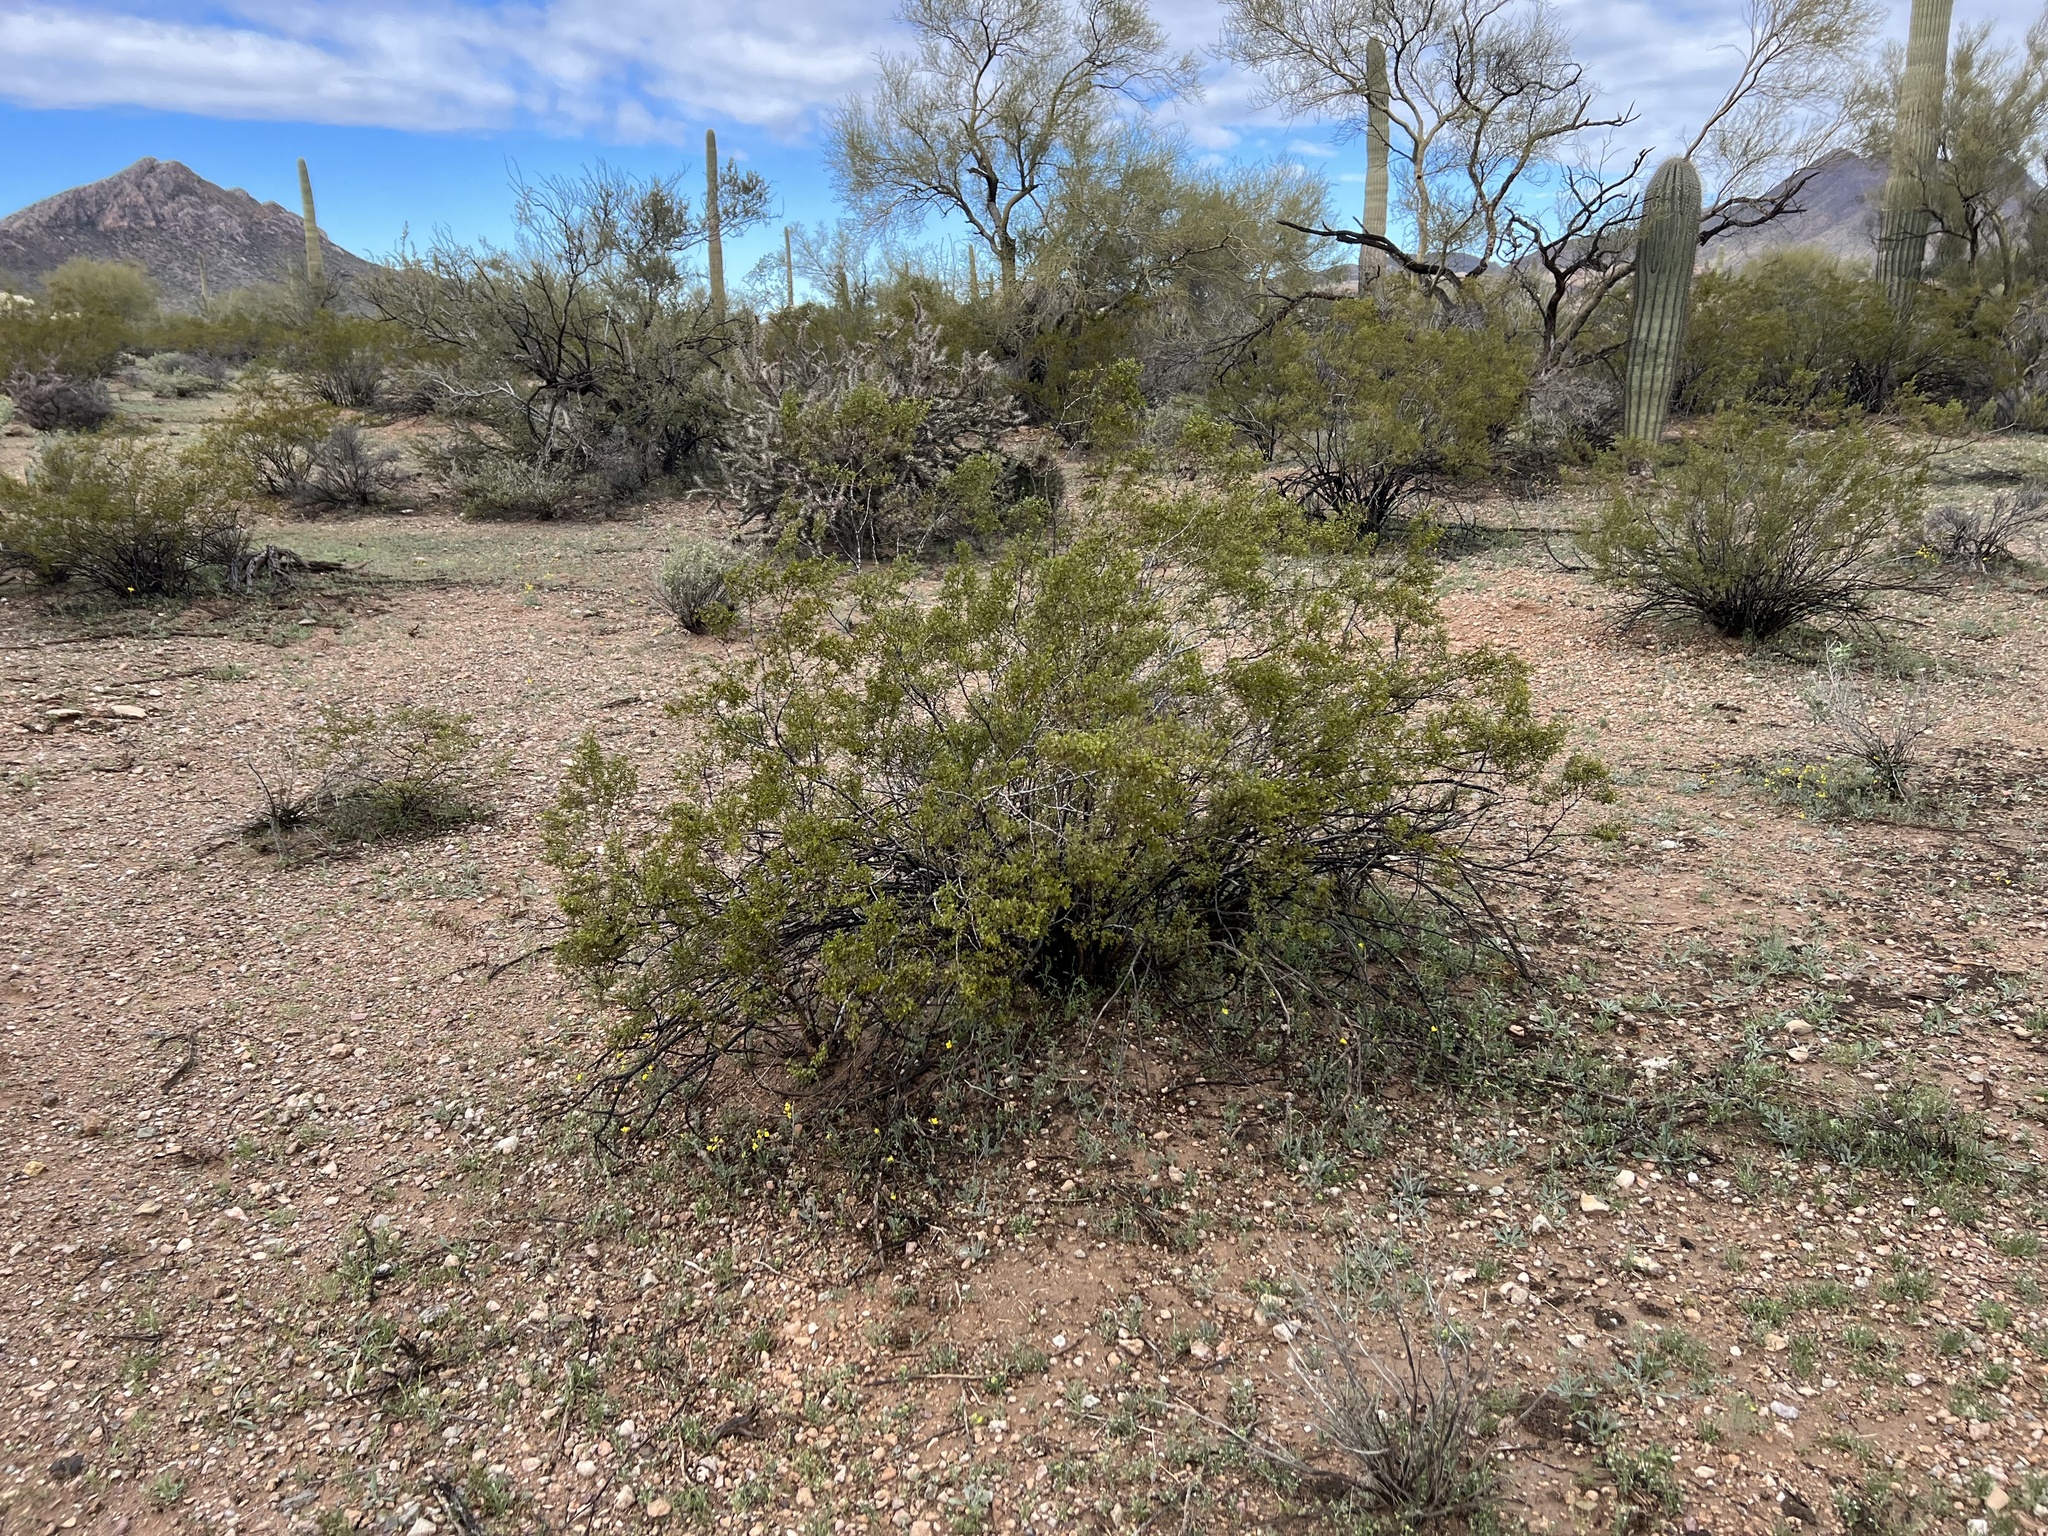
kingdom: Plantae
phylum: Tracheophyta
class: Magnoliopsida
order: Zygophyllales
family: Zygophyllaceae
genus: Larrea
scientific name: Larrea tridentata
